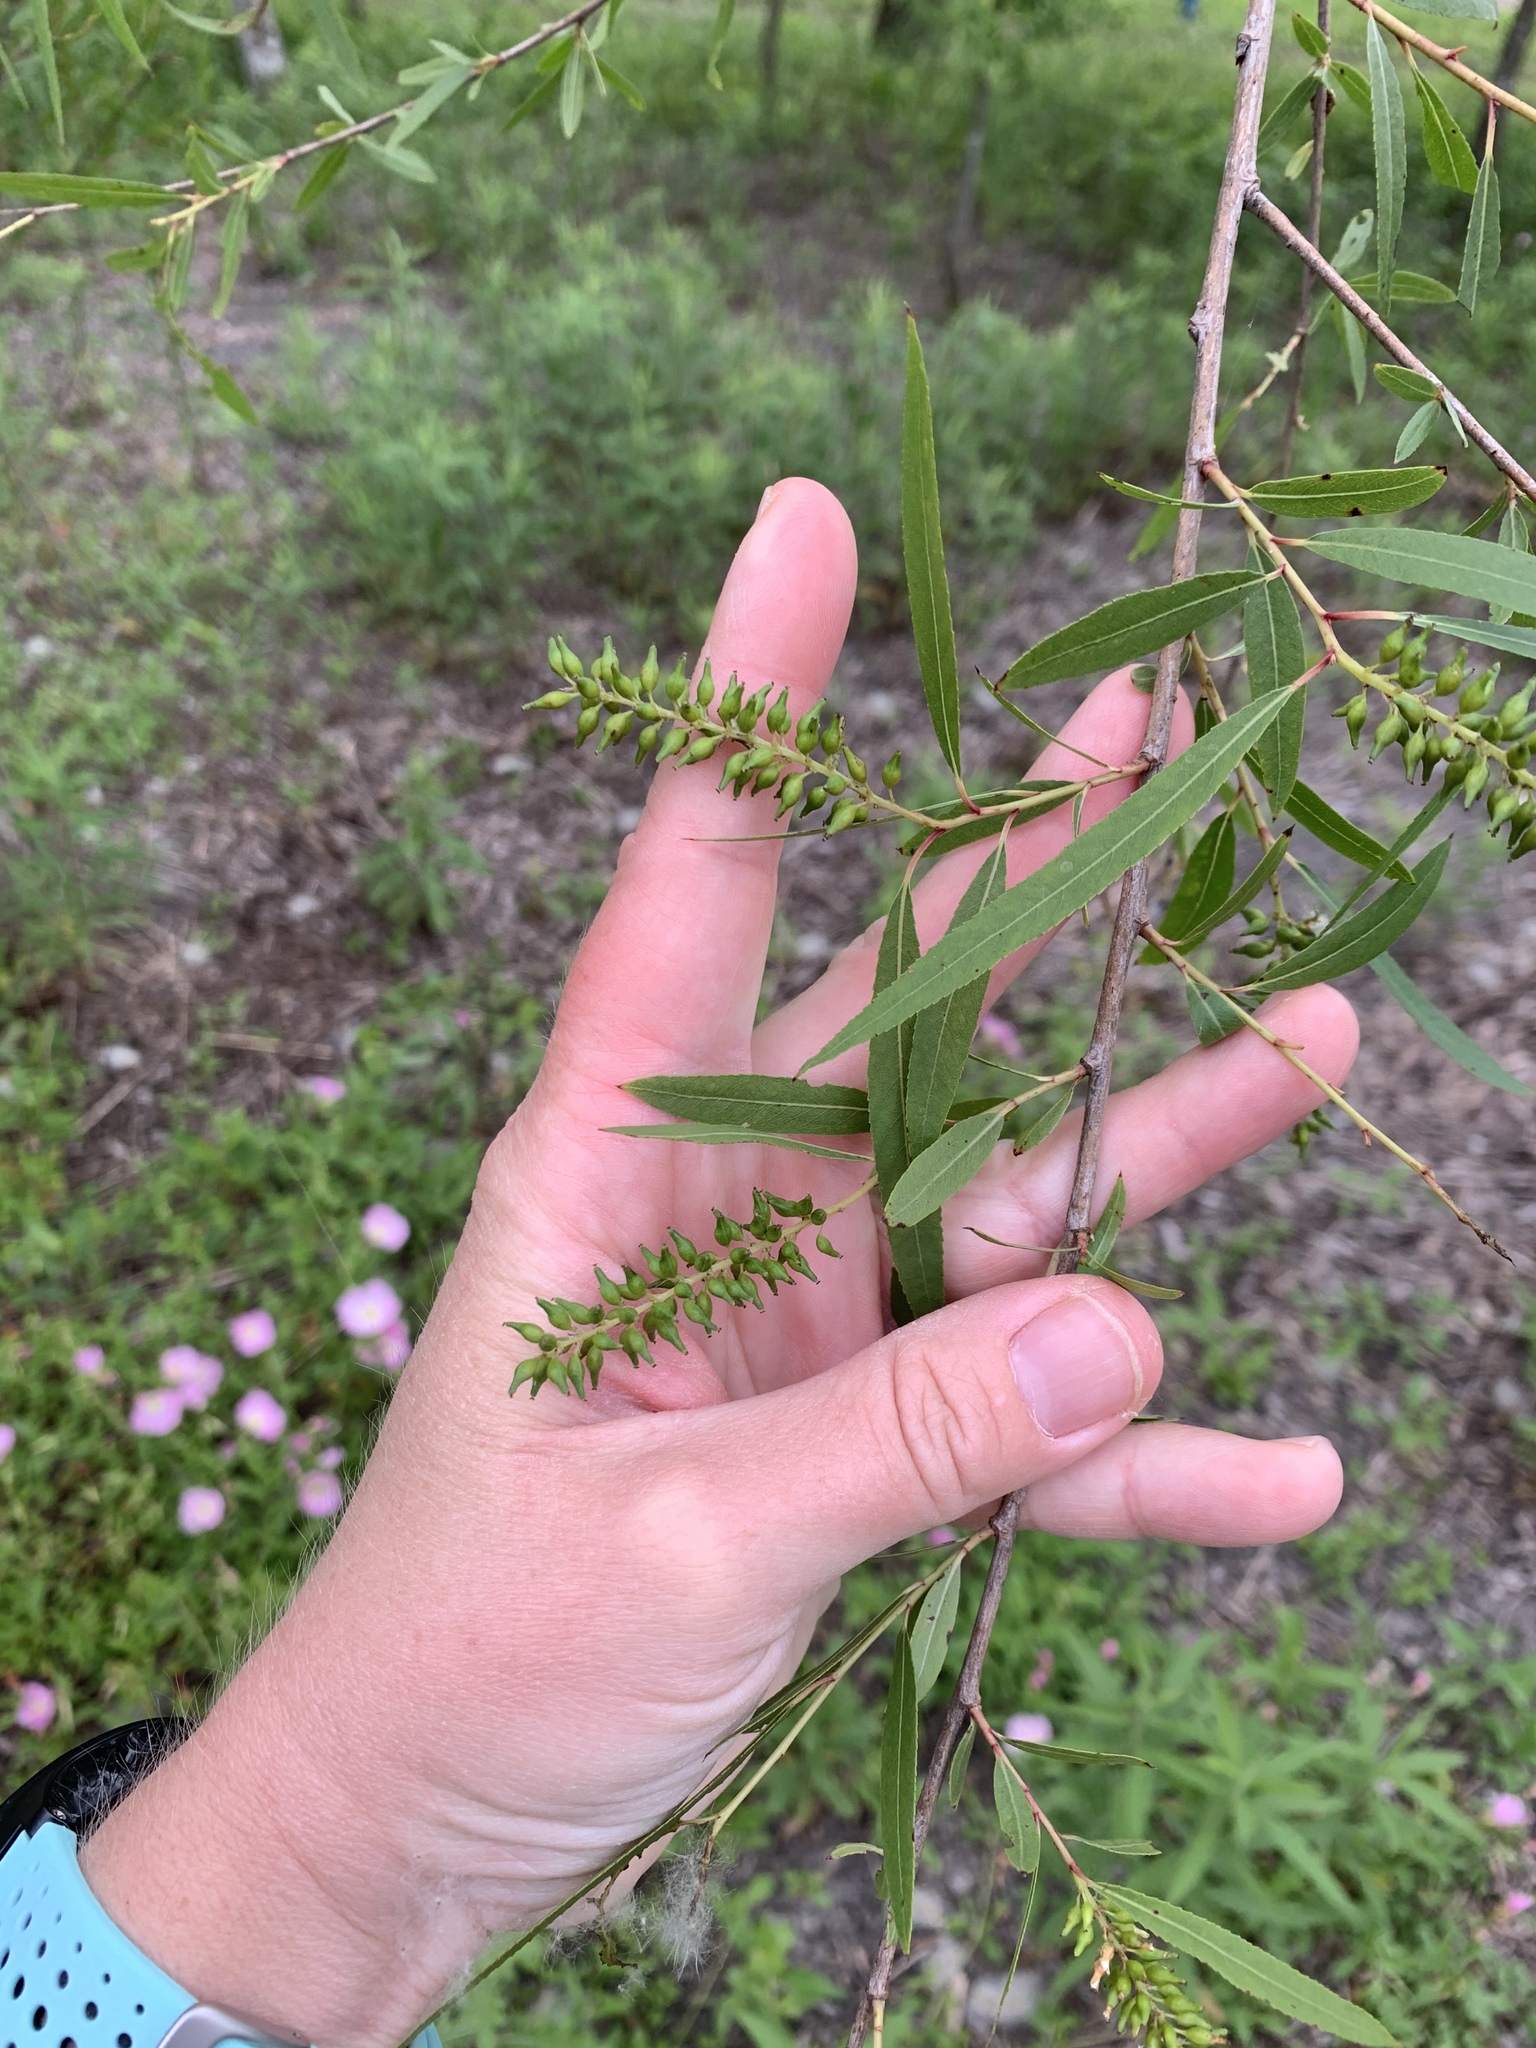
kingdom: Plantae
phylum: Tracheophyta
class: Magnoliopsida
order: Malpighiales
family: Salicaceae
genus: Salix
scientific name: Salix nigra
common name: Black willow
